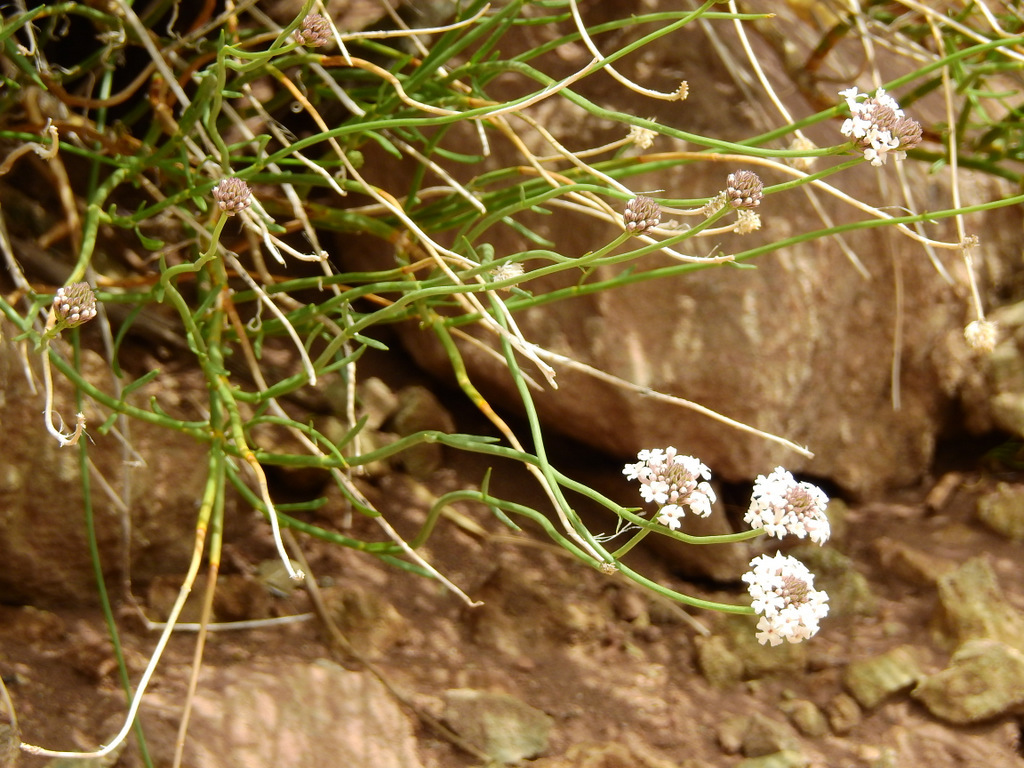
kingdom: Plantae
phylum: Tracheophyta
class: Magnoliopsida
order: Lamiales
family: Verbenaceae
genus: Junellia
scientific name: Junellia spathulata
